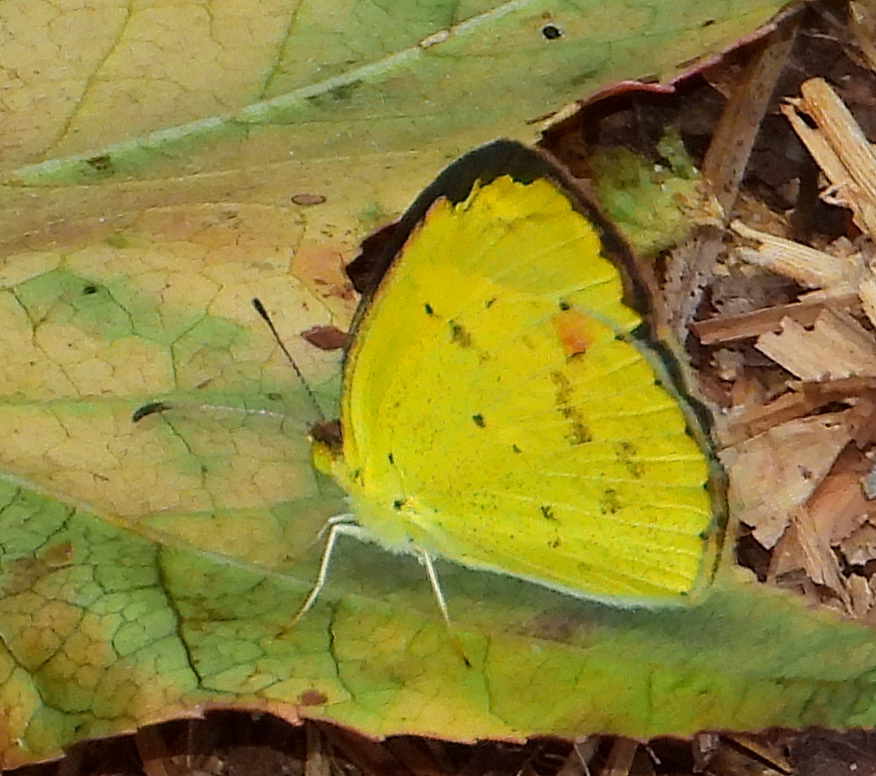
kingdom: Animalia
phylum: Arthropoda
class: Insecta
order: Lepidoptera
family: Pieridae
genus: Pyrisitia
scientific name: Pyrisitia lisa
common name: Little yellow
